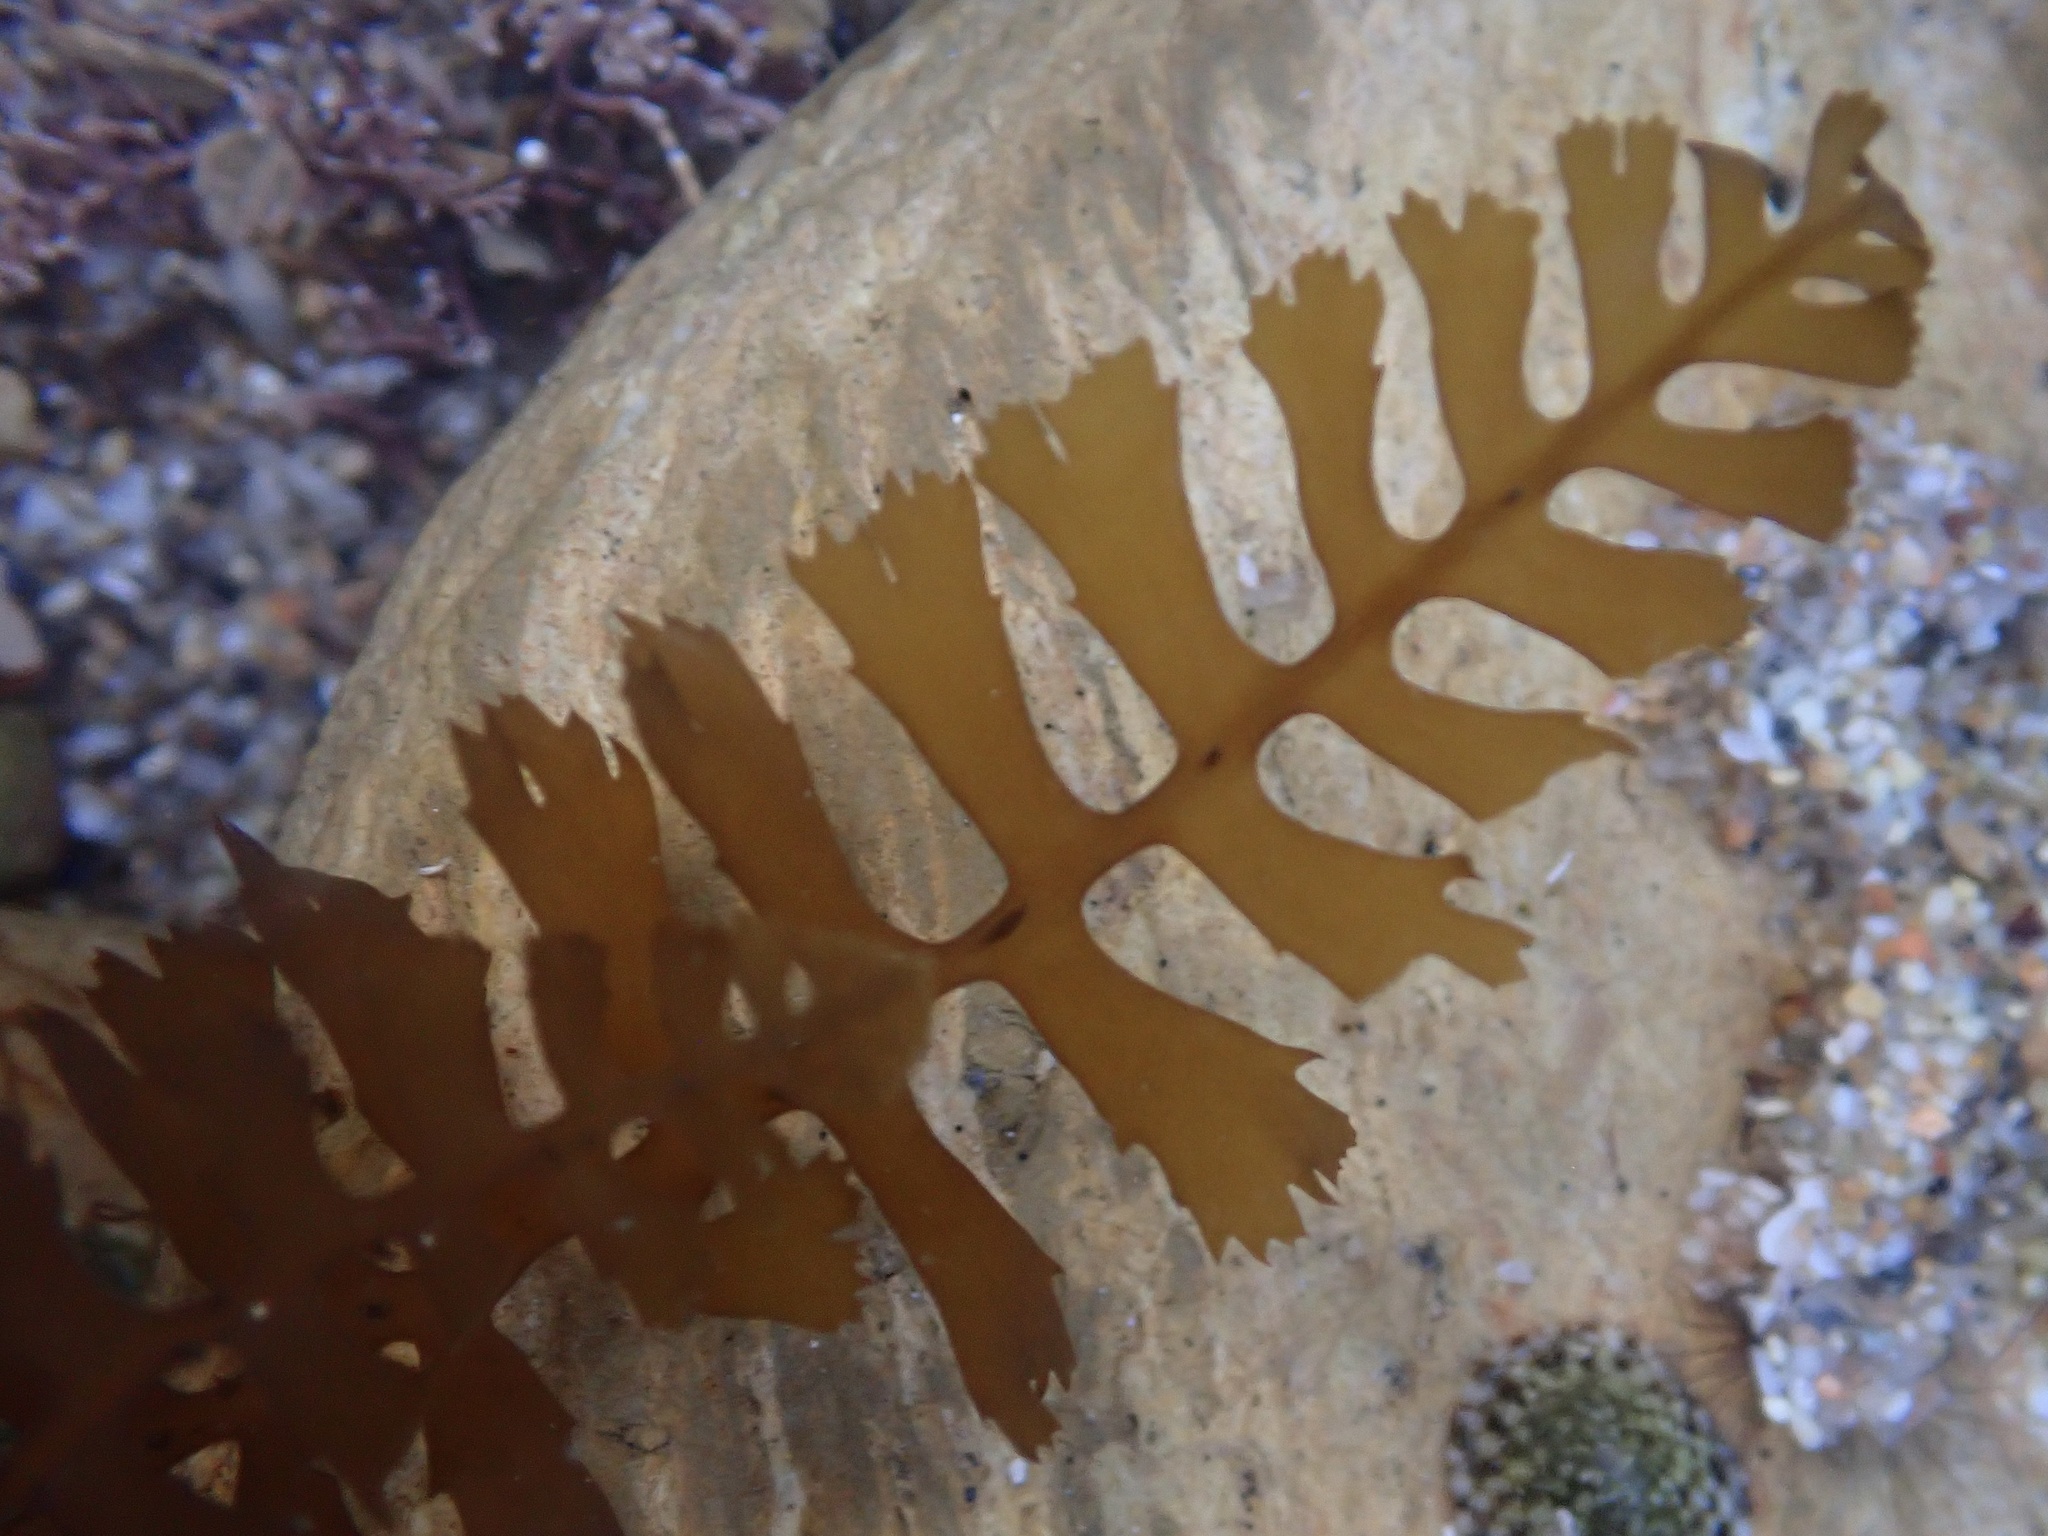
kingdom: Chromista
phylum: Ochrophyta
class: Phaeophyceae
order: Fucales
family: Sargassaceae
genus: Sargassum
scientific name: Sargassum horneri
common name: Devil weed
